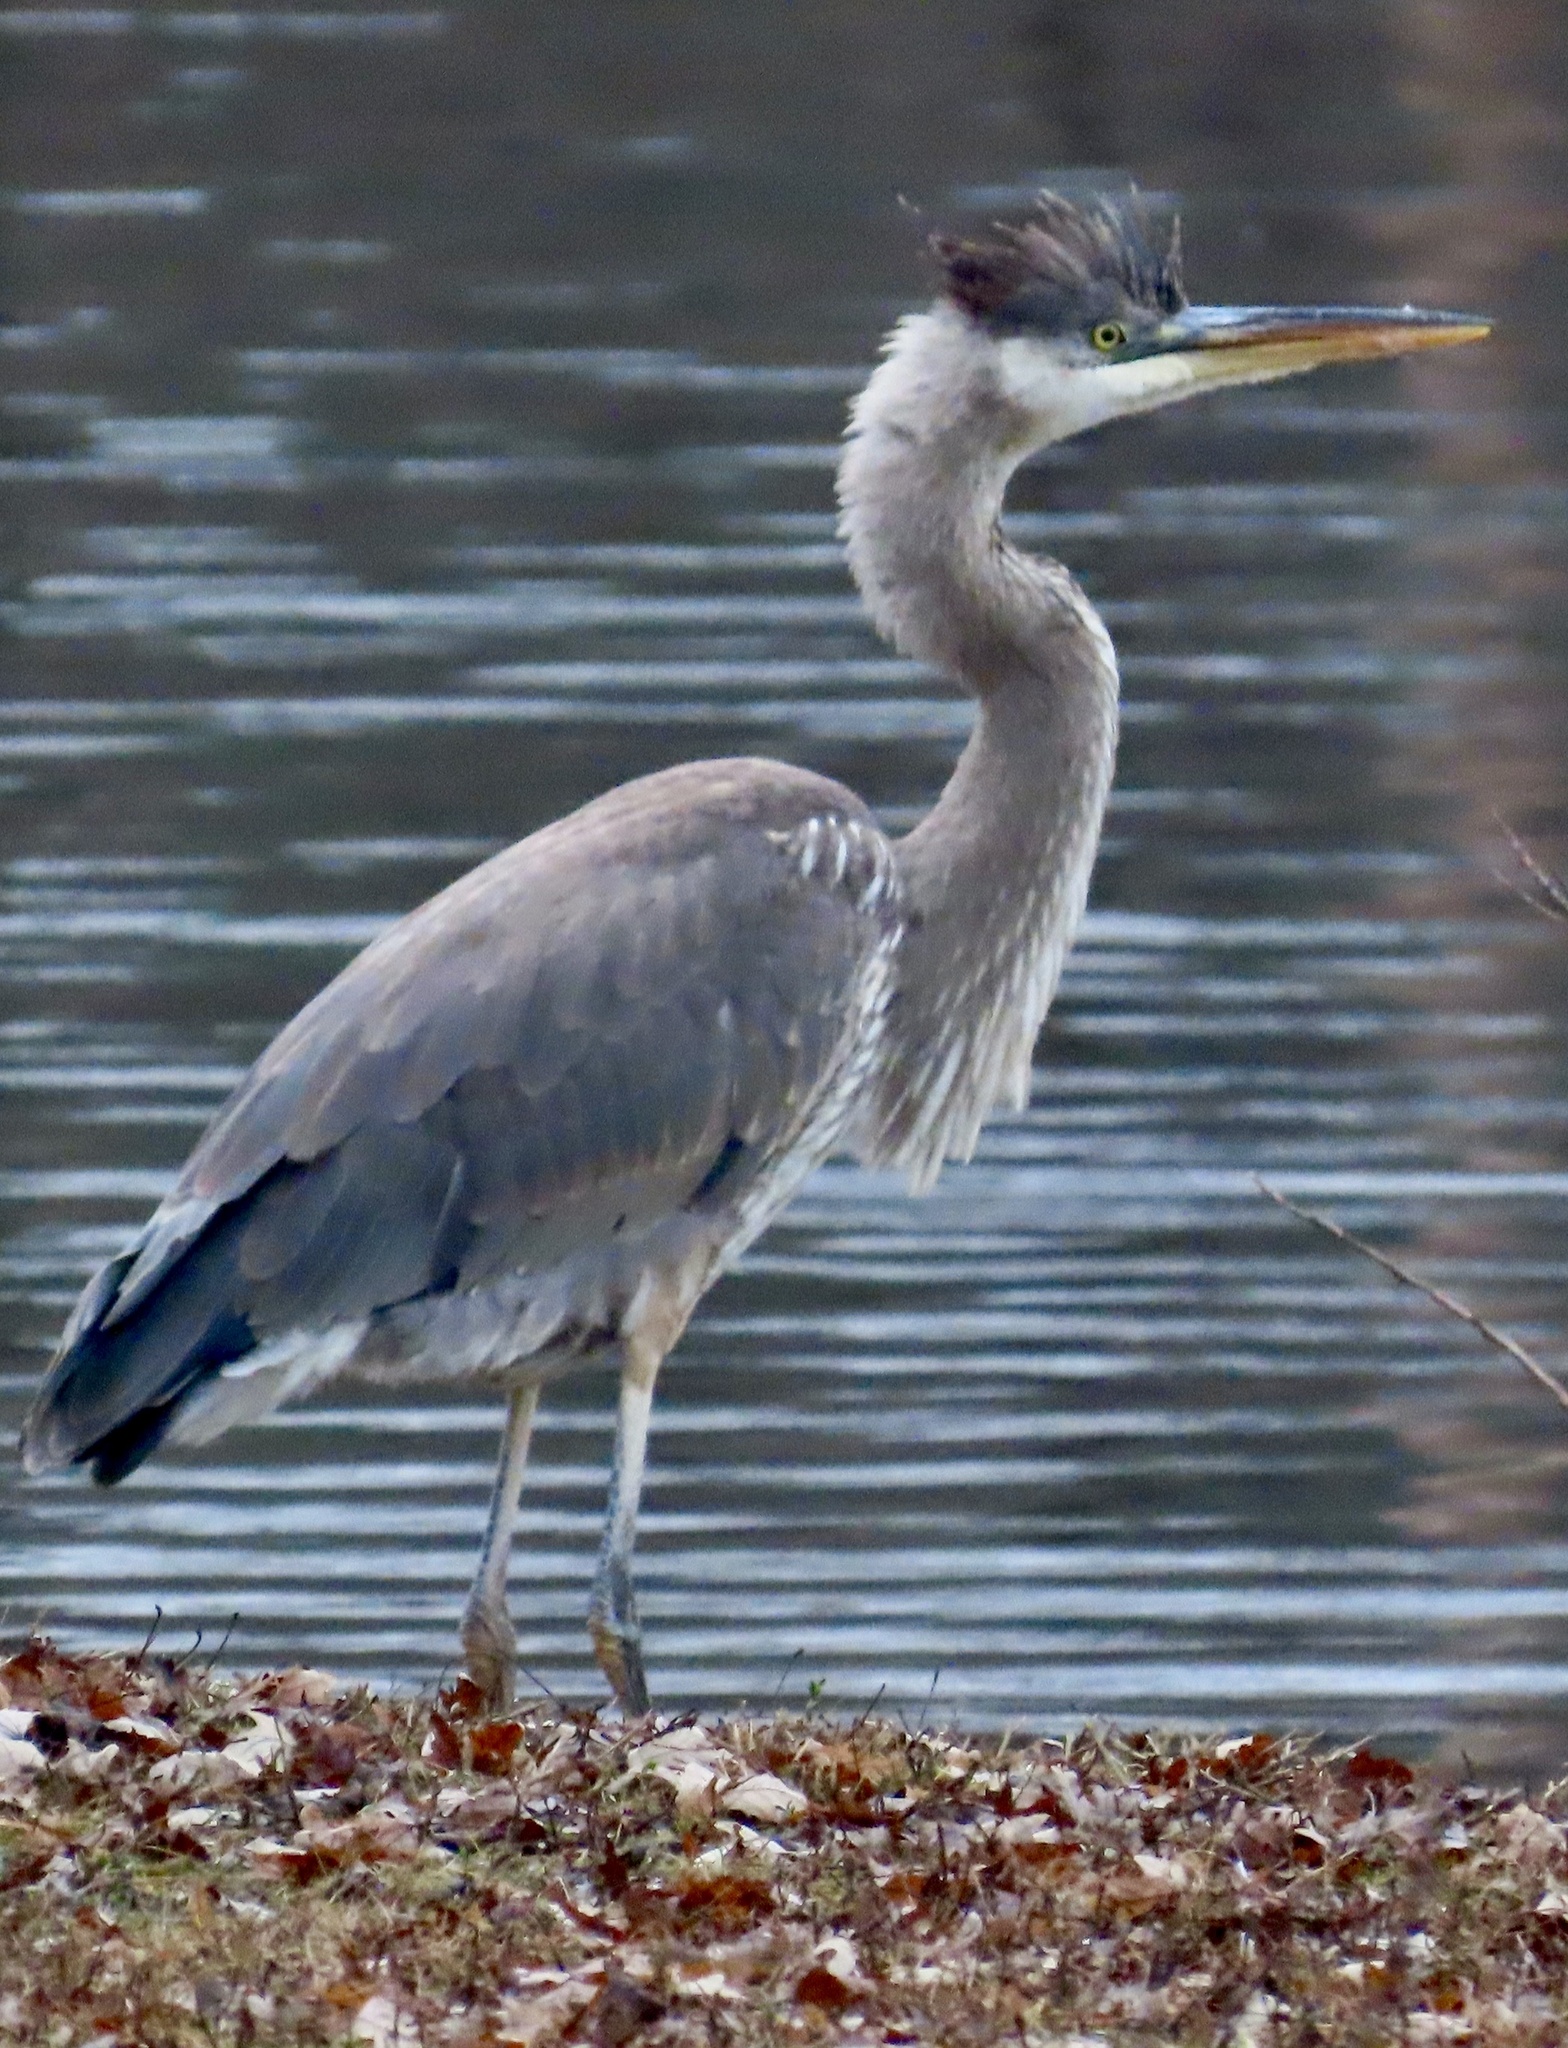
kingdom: Animalia
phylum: Chordata
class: Aves
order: Pelecaniformes
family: Ardeidae
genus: Ardea
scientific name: Ardea herodias
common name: Great blue heron
